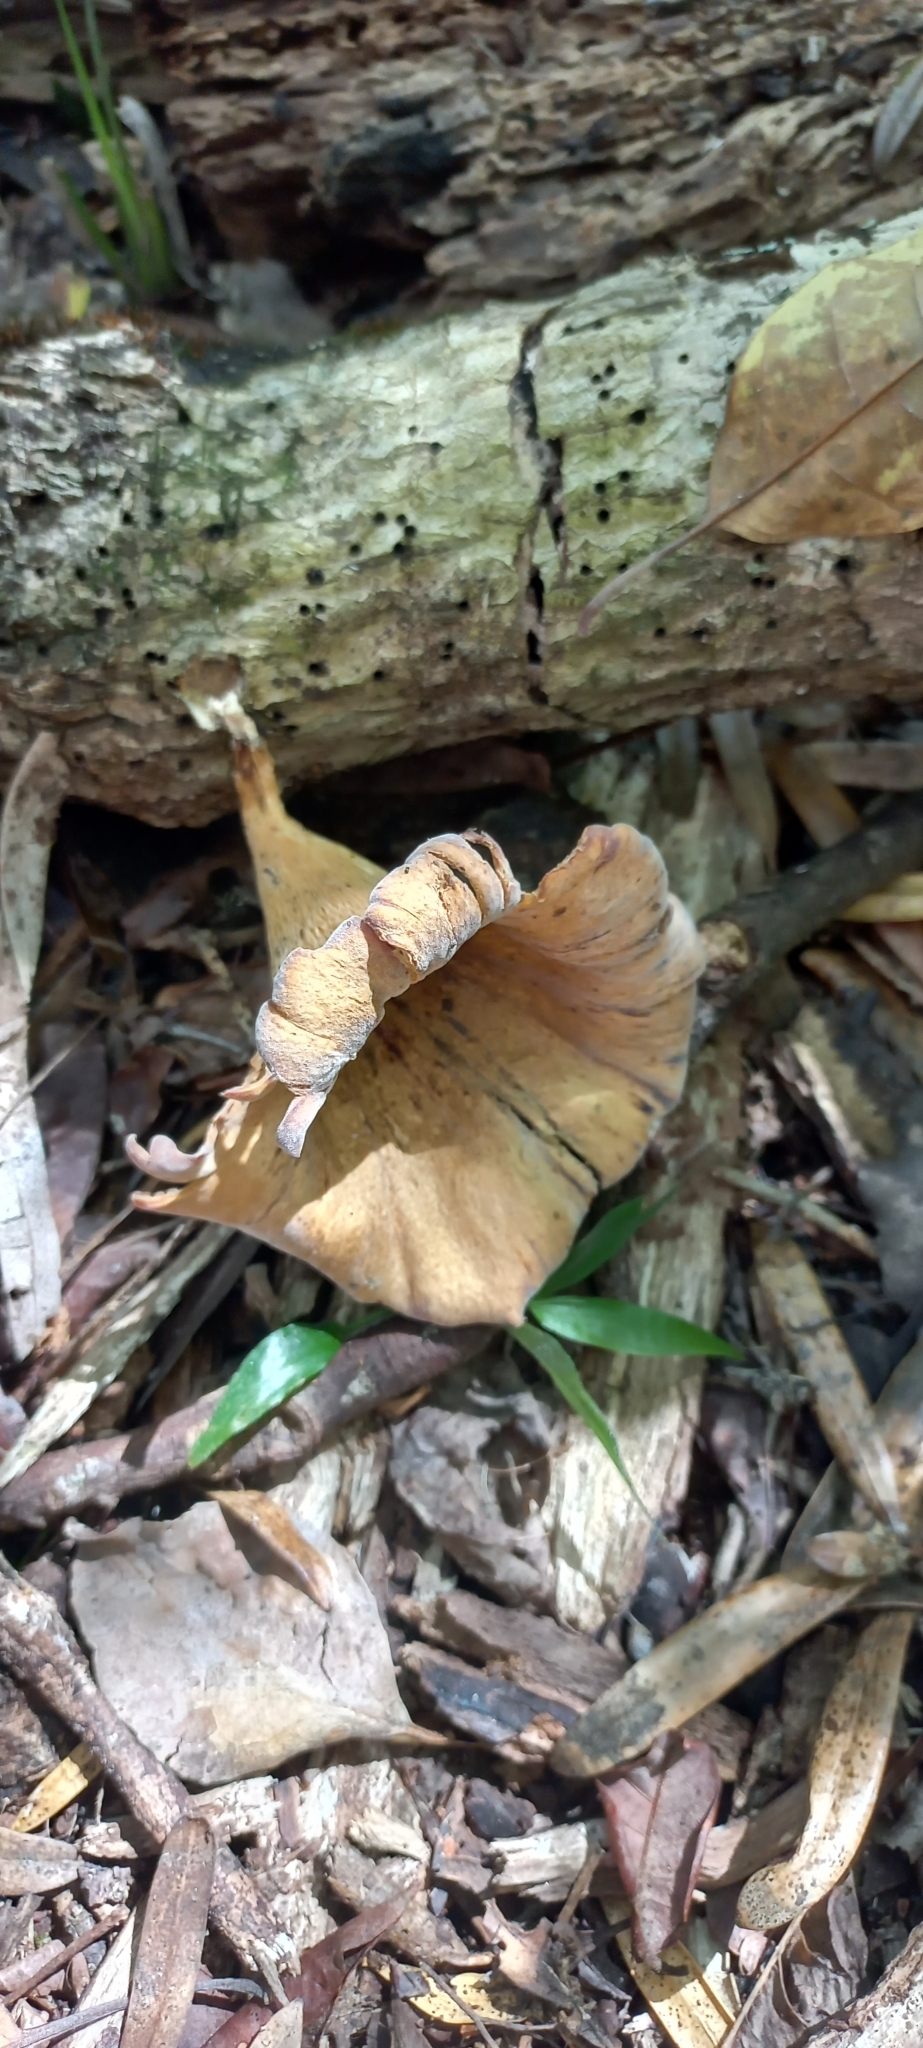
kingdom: Fungi
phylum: Basidiomycota
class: Agaricomycetes
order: Polyporales
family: Polyporaceae
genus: Lentinus
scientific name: Lentinus sajor-caju
